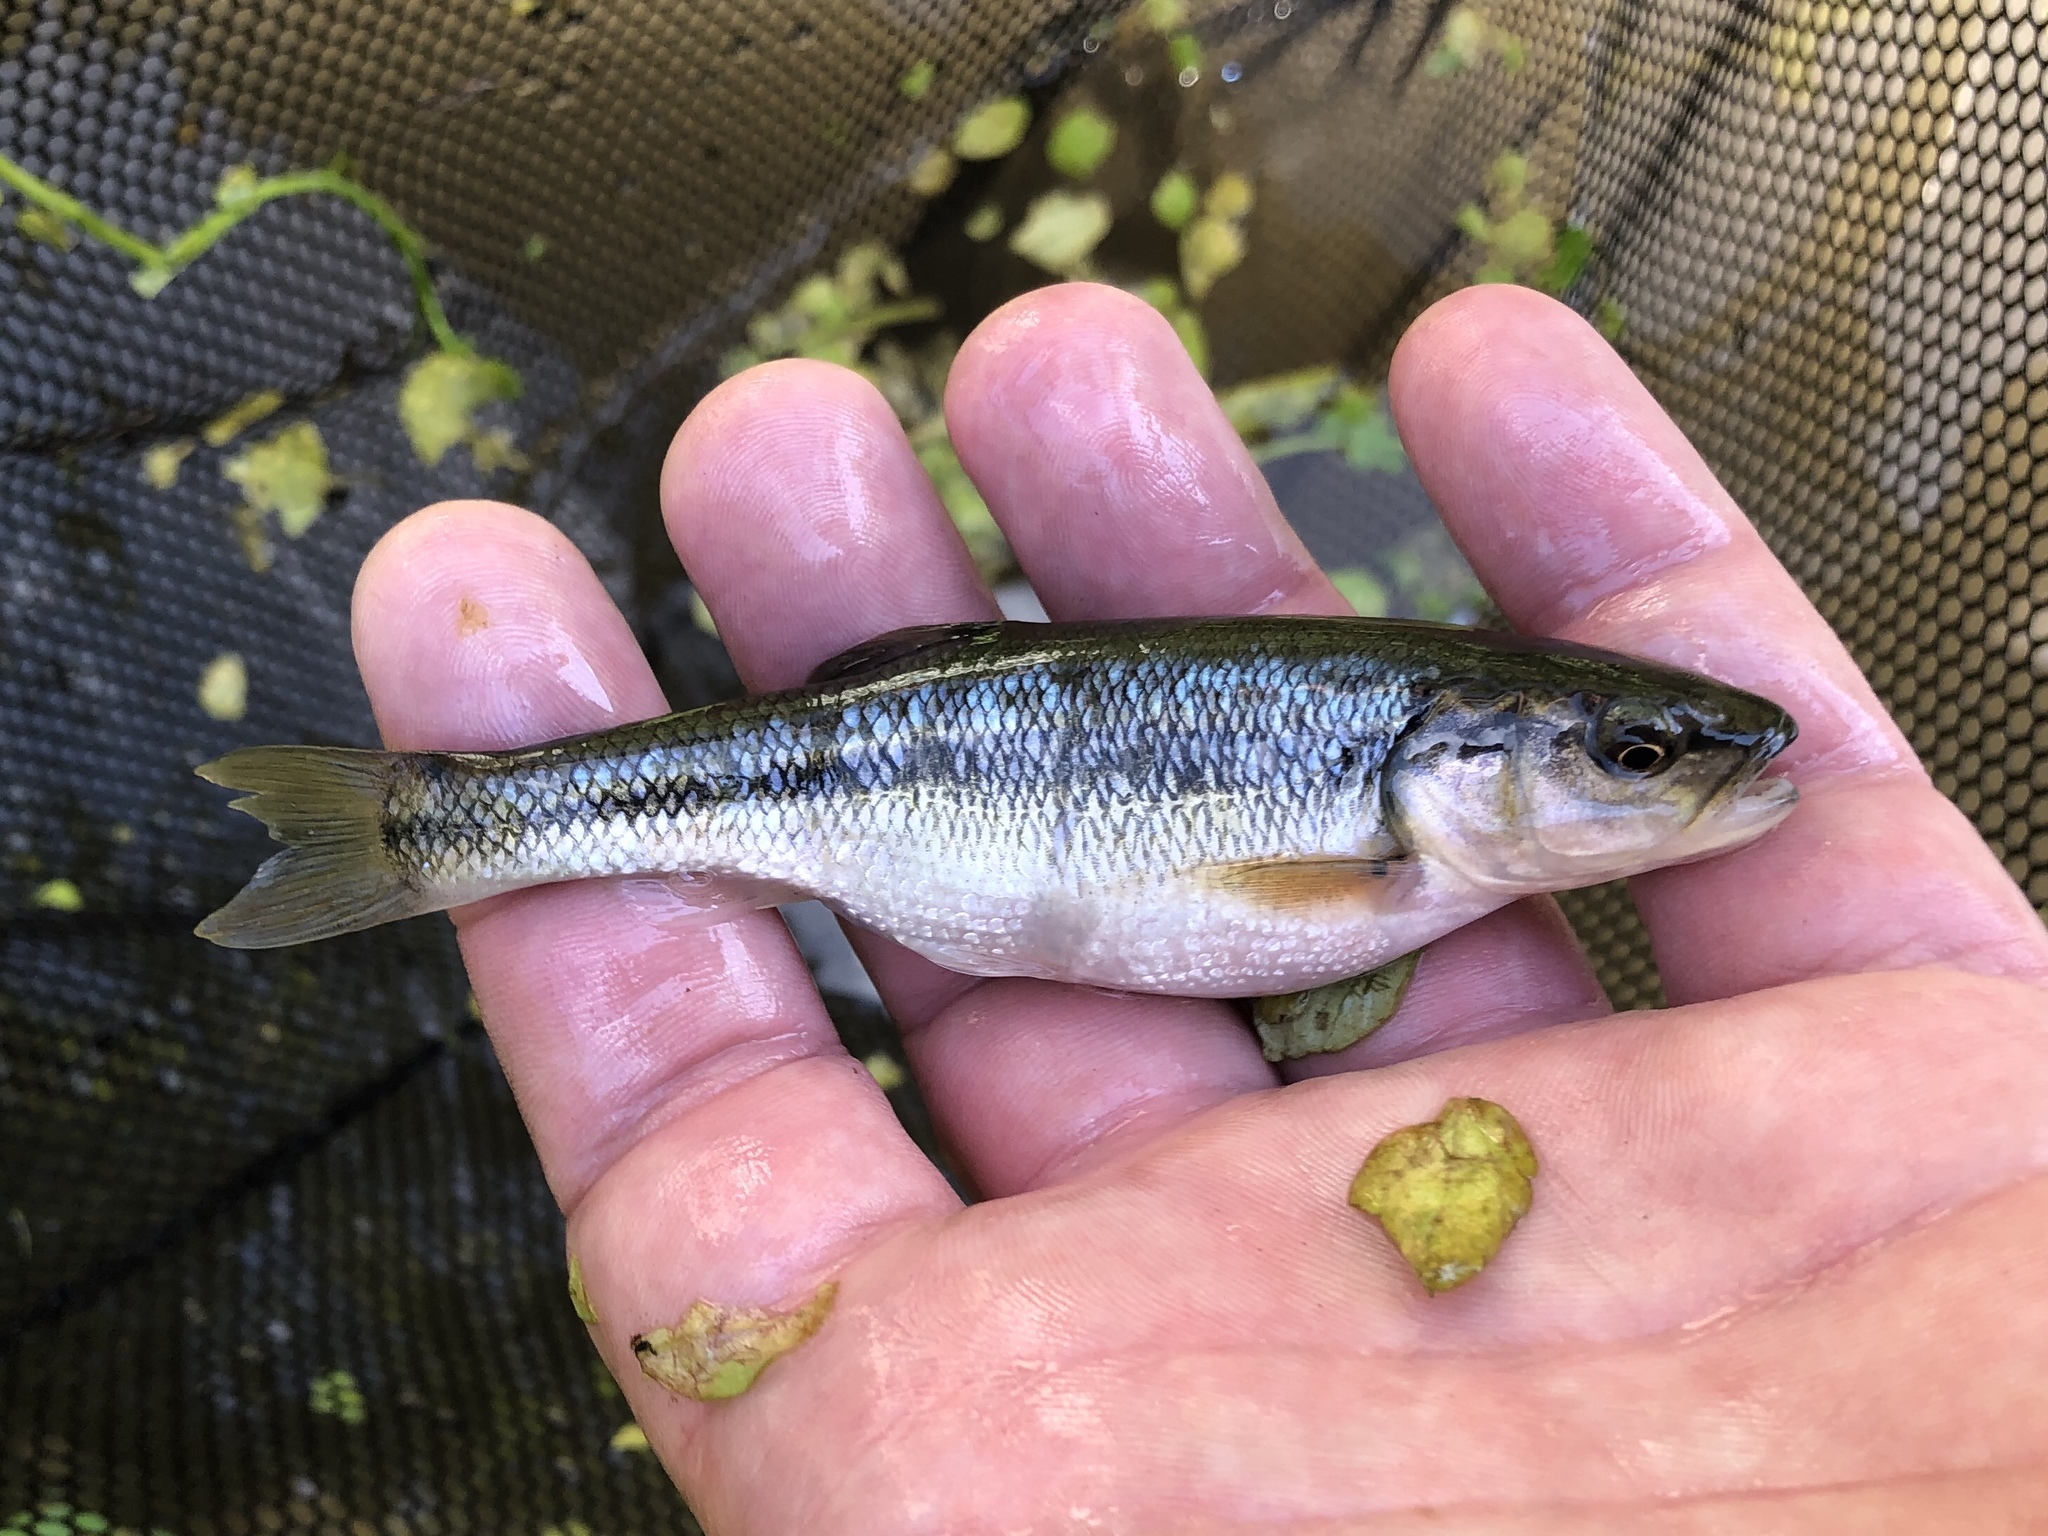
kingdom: Animalia
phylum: Chordata
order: Cypriniformes
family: Cyprinidae
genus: Semotilus
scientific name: Semotilus atromaculatus
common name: Creek chub
